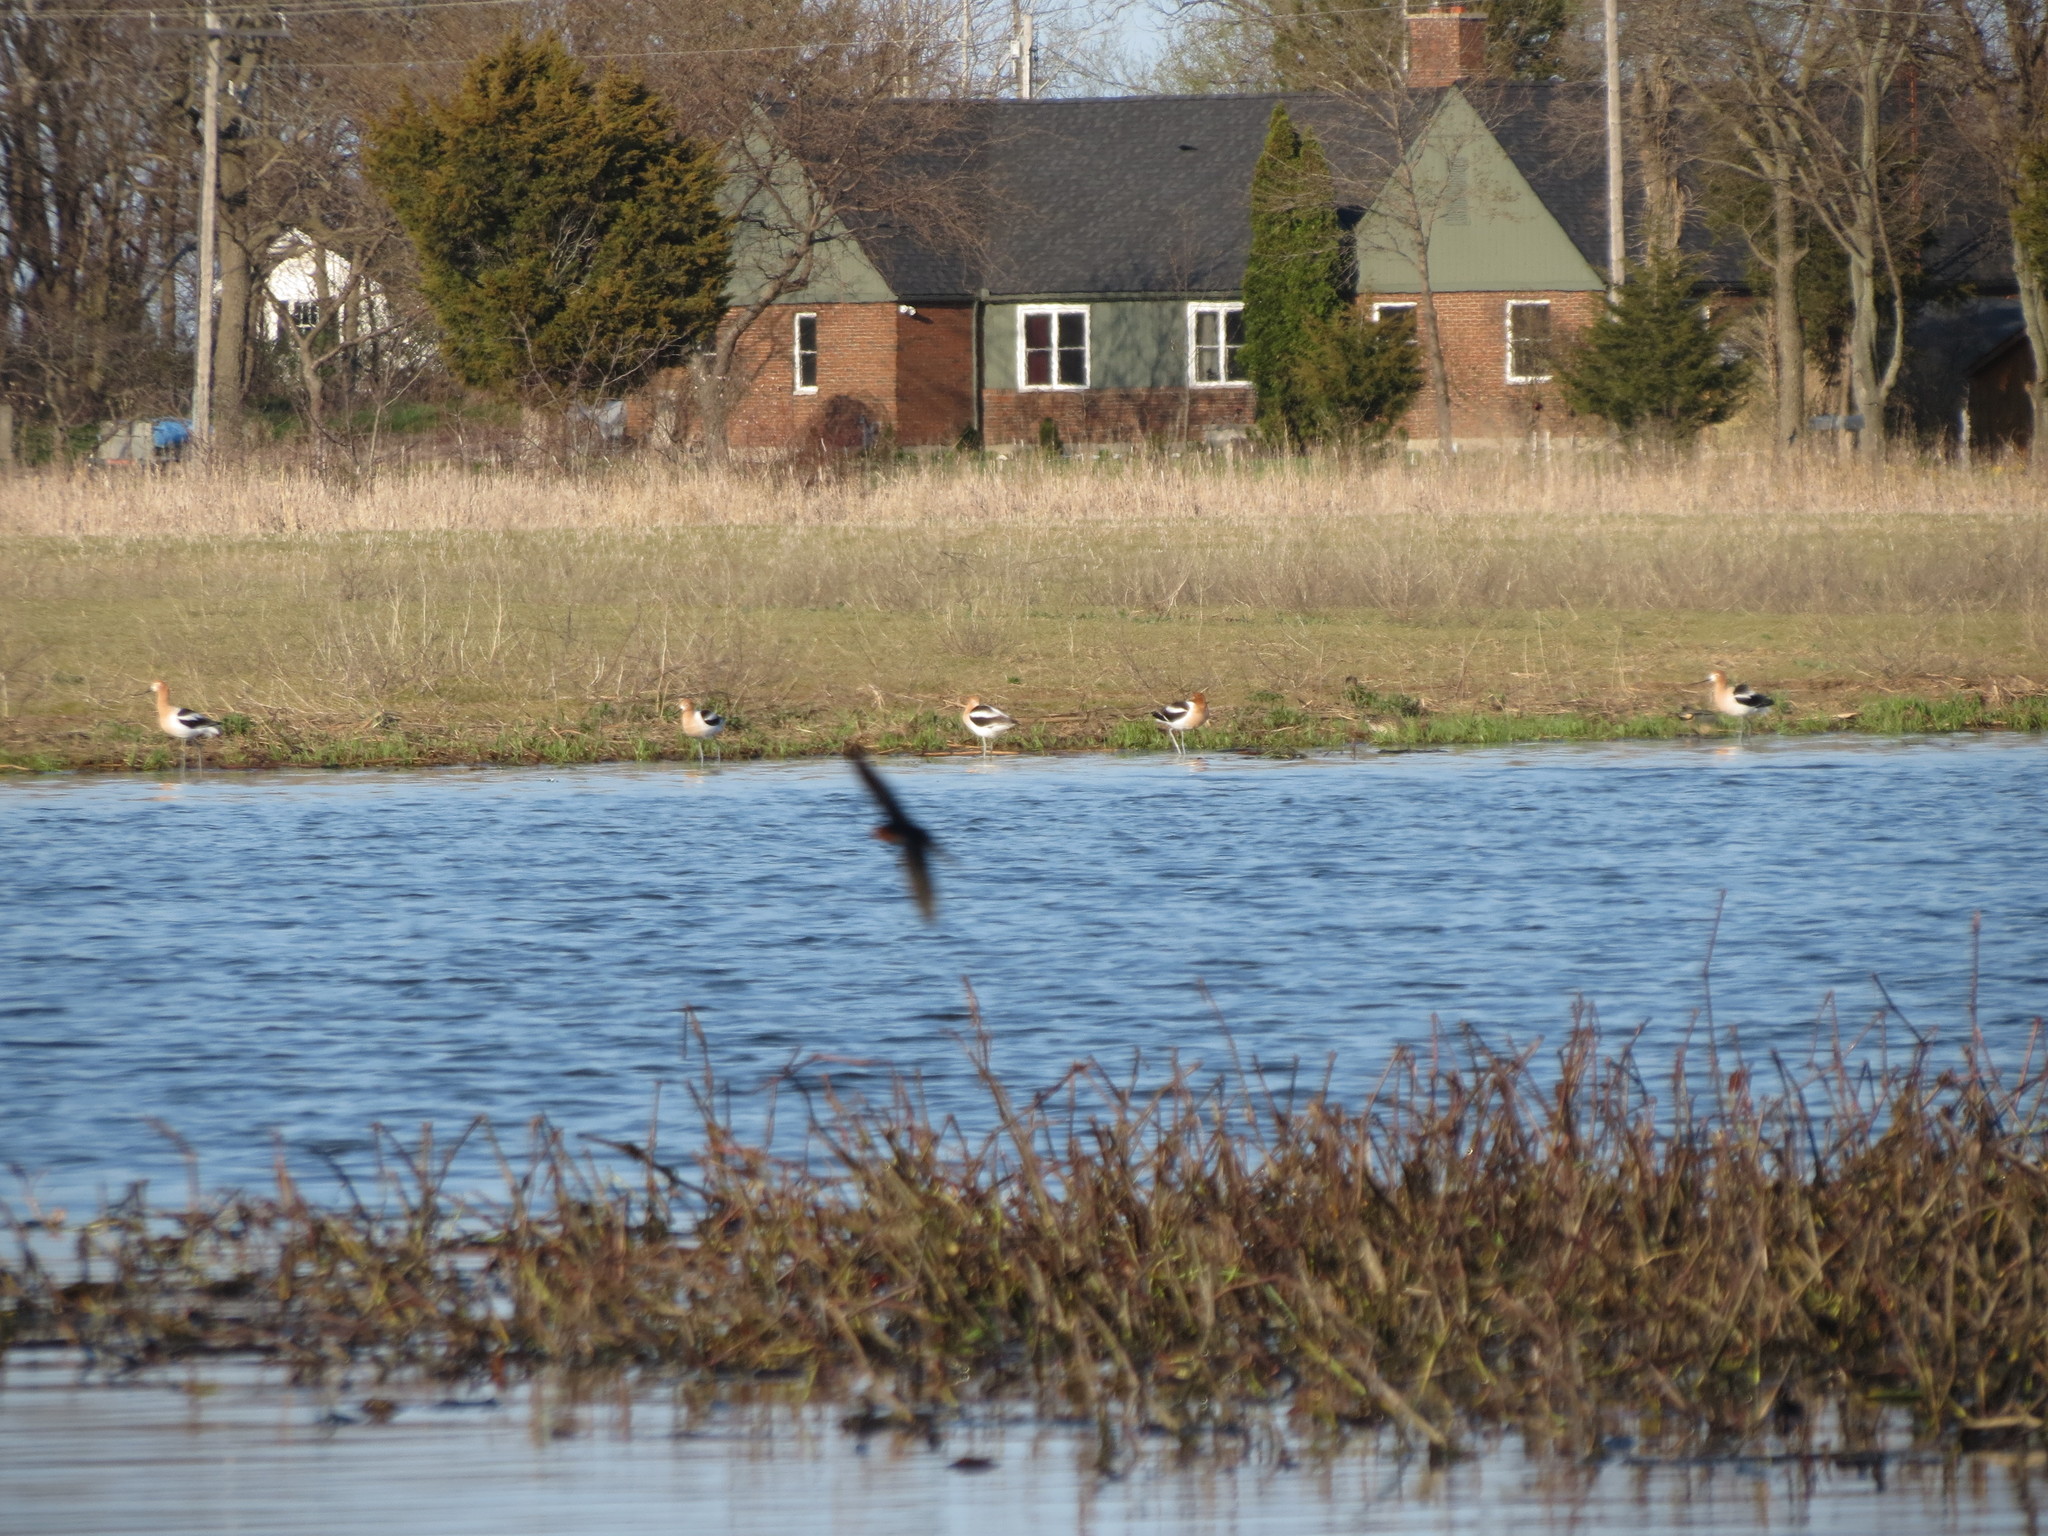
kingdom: Animalia
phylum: Chordata
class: Aves
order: Charadriiformes
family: Recurvirostridae
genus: Recurvirostra
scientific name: Recurvirostra americana
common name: American avocet
